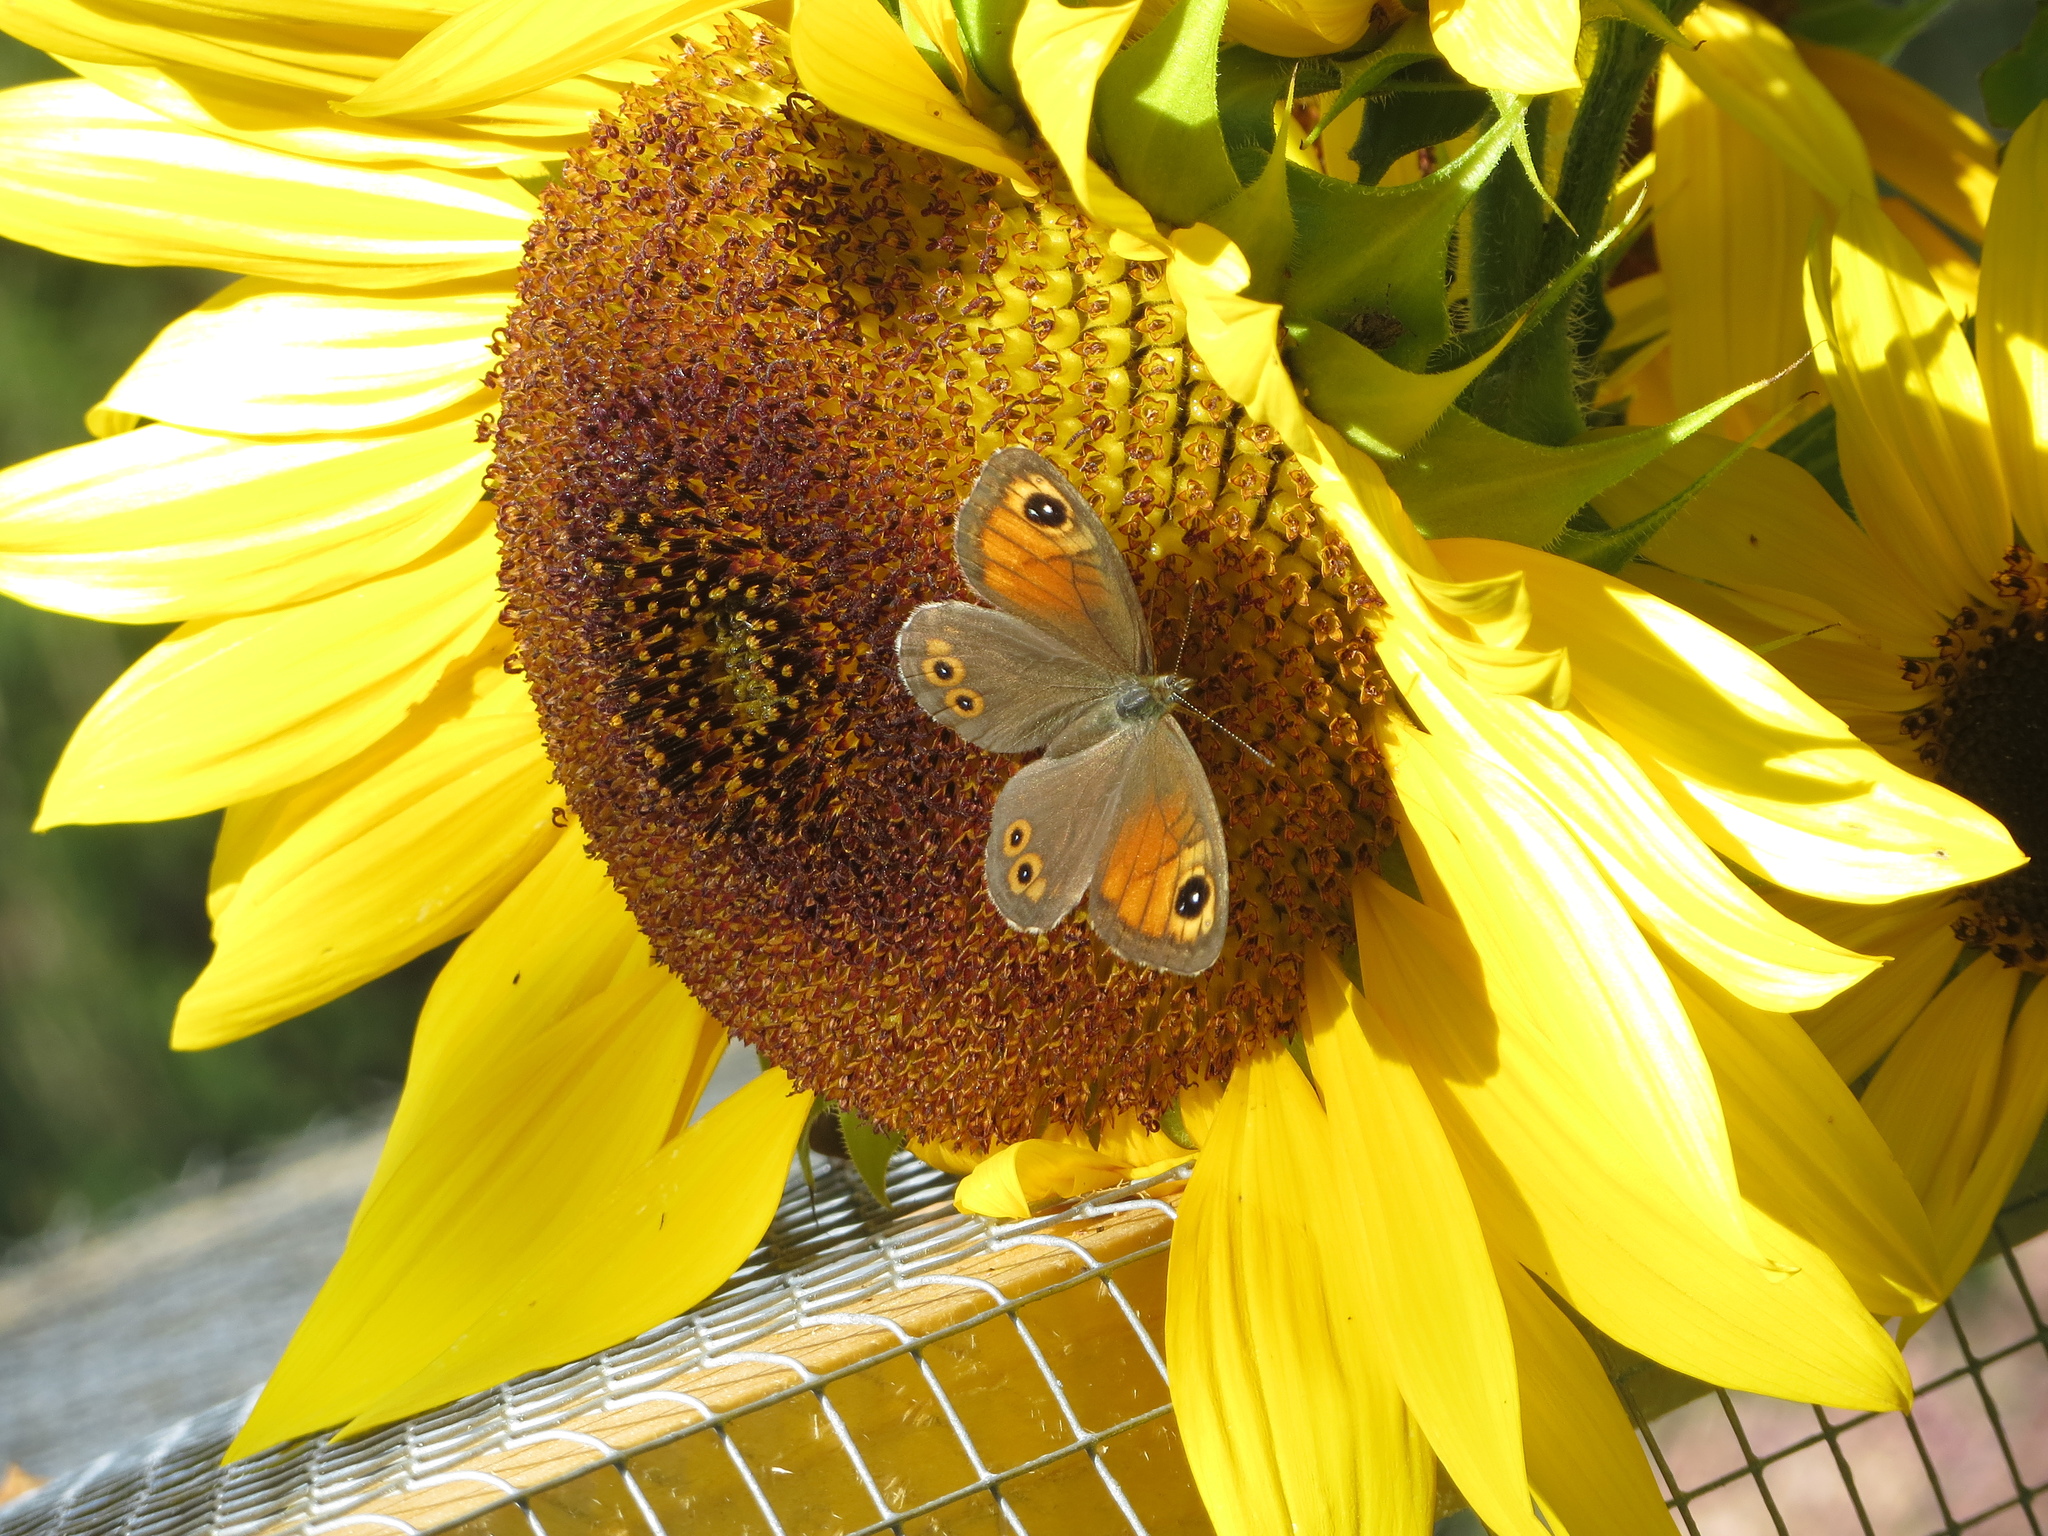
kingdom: Animalia
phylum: Arthropoda
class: Insecta
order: Lepidoptera
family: Nymphalidae
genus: Pararge
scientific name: Pararge Lasiommata maera
